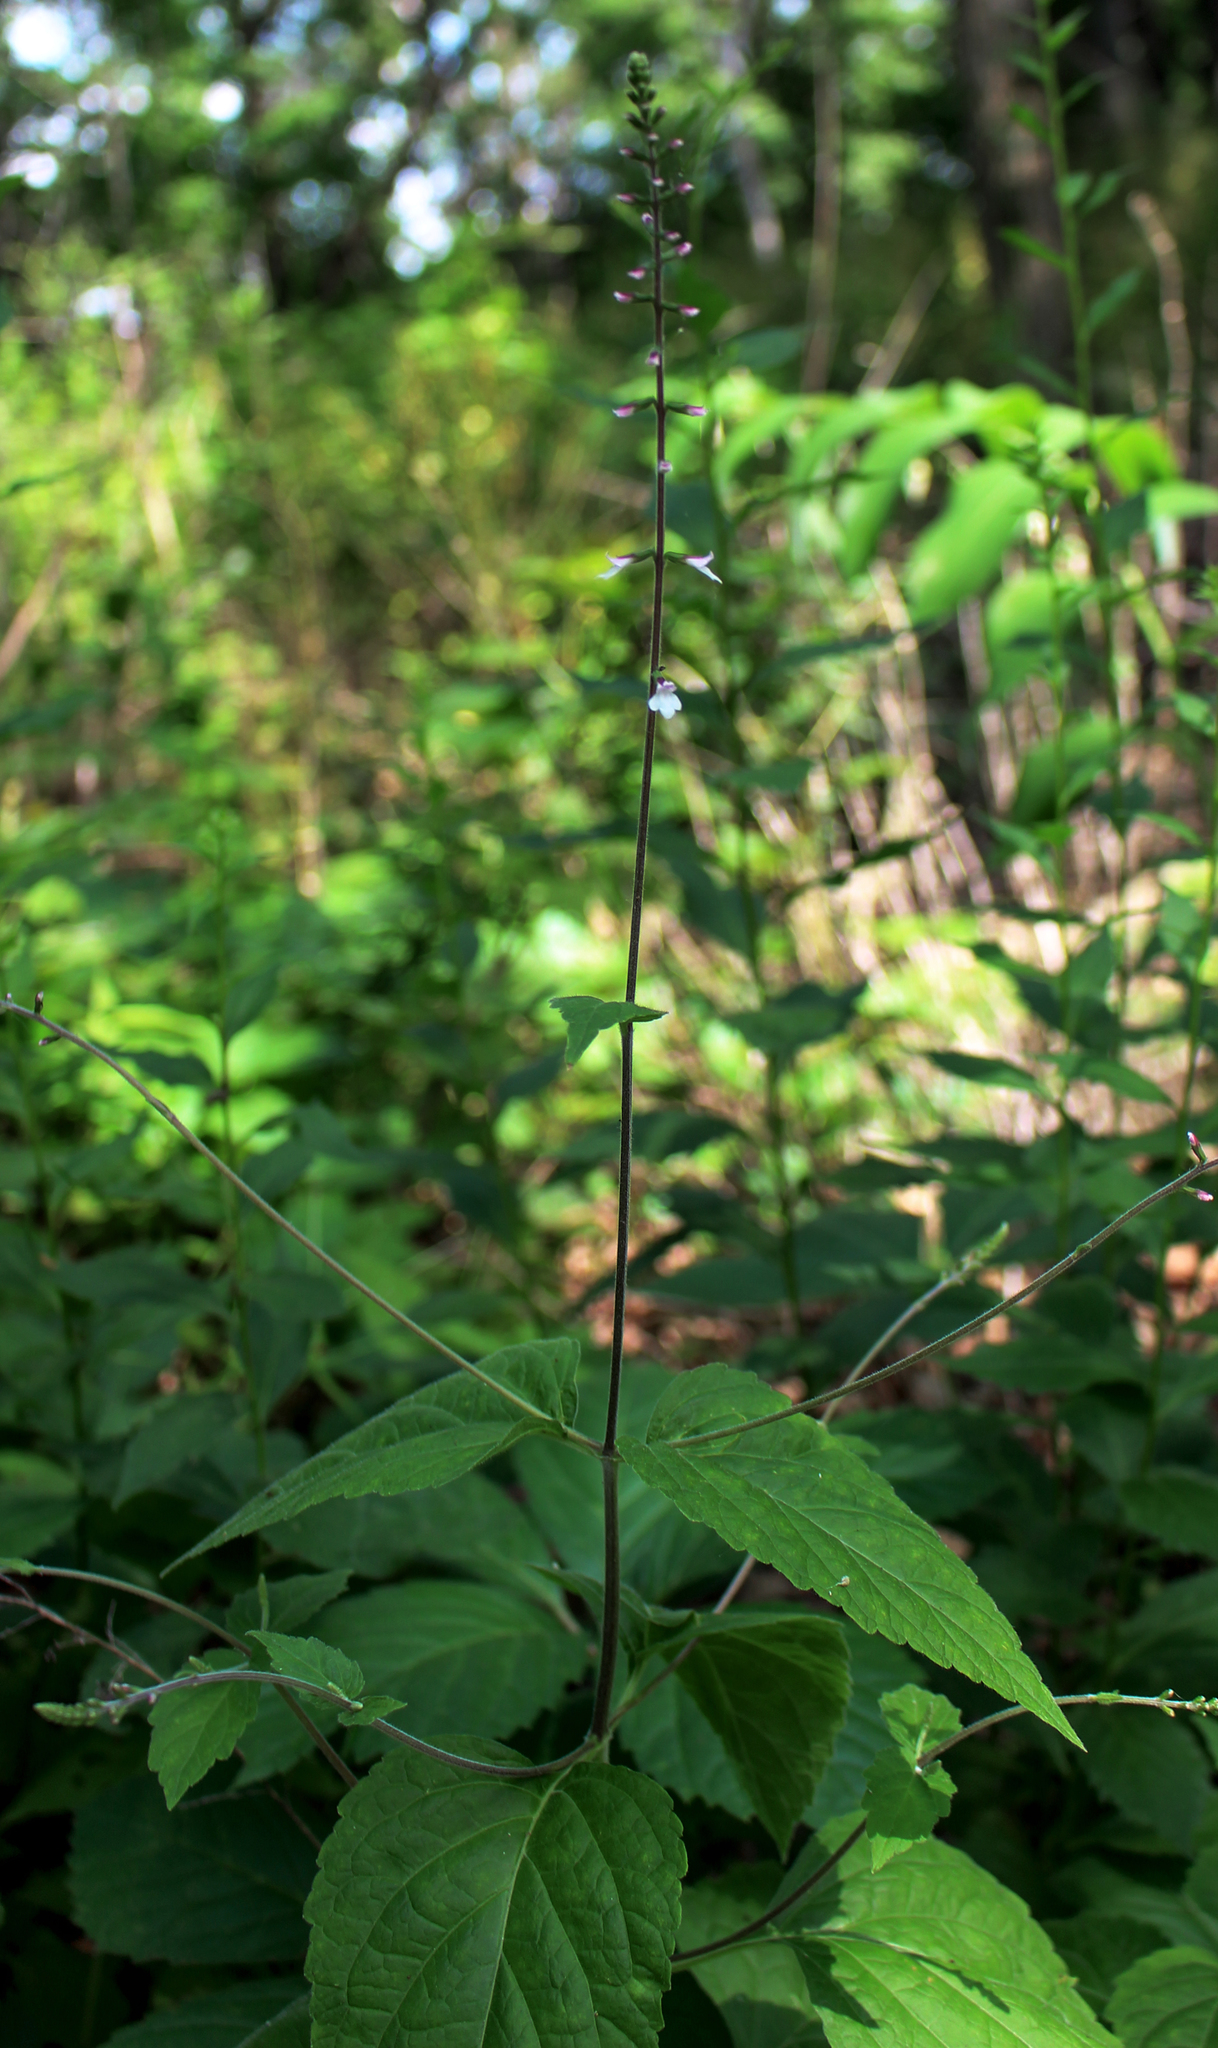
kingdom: Plantae
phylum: Tracheophyta
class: Magnoliopsida
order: Lamiales
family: Phrymaceae
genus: Phryma
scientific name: Phryma leptostachya
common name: American lopseed
